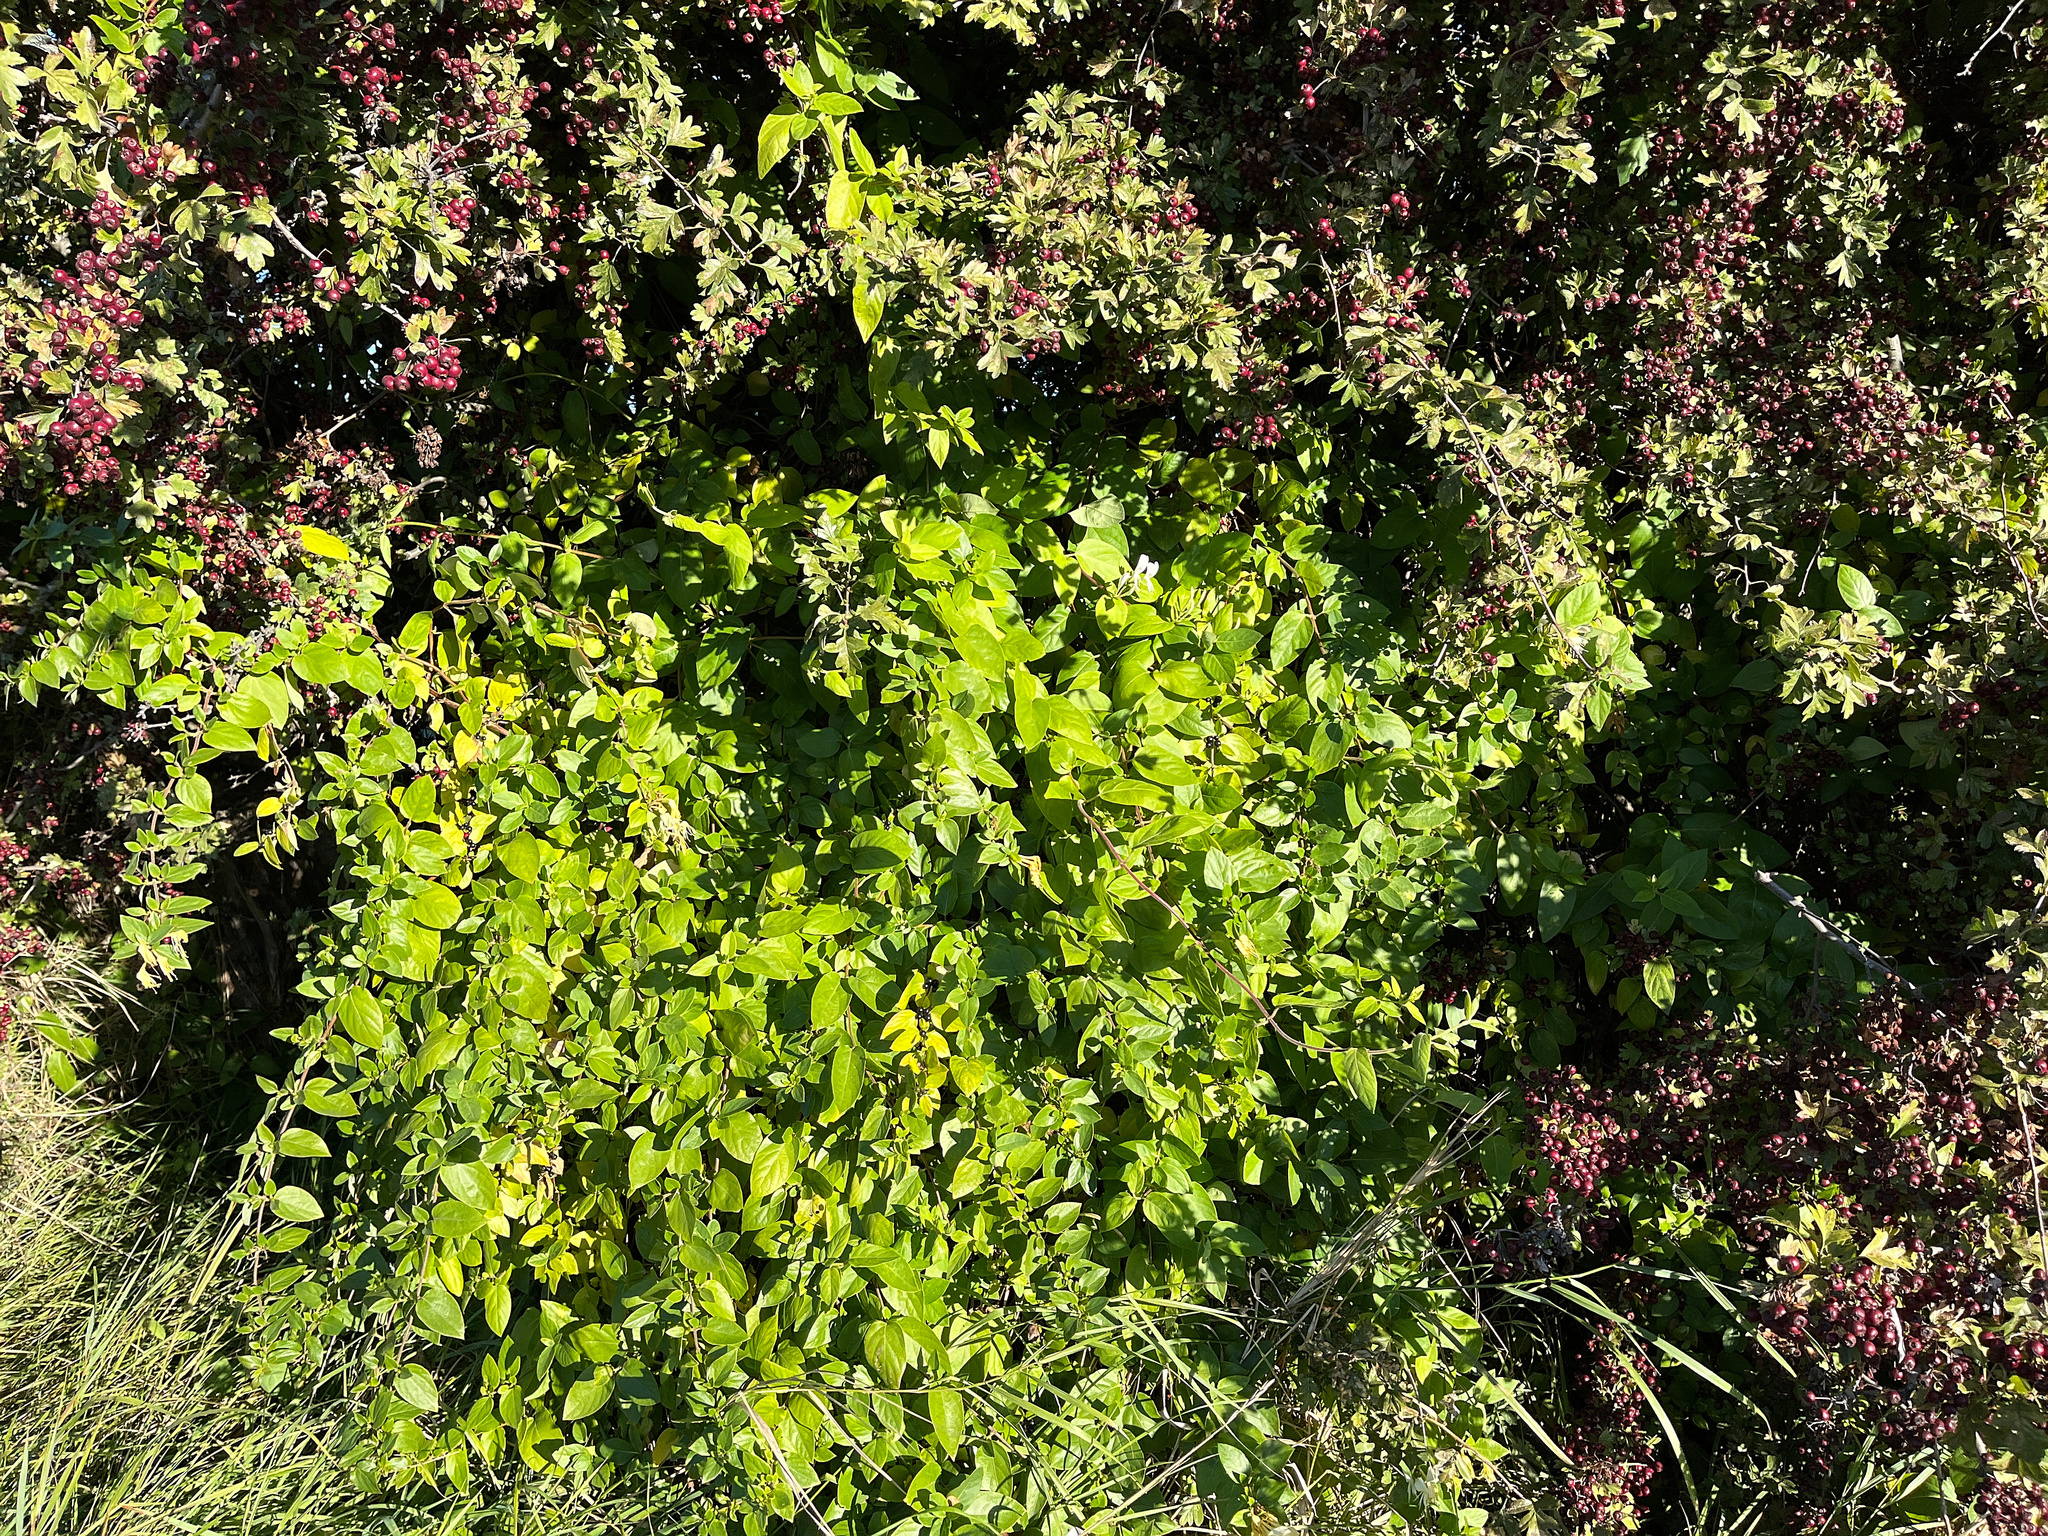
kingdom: Plantae
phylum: Tracheophyta
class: Magnoliopsida
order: Dipsacales
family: Caprifoliaceae
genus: Lonicera
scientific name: Lonicera japonica
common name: Japanese honeysuckle
